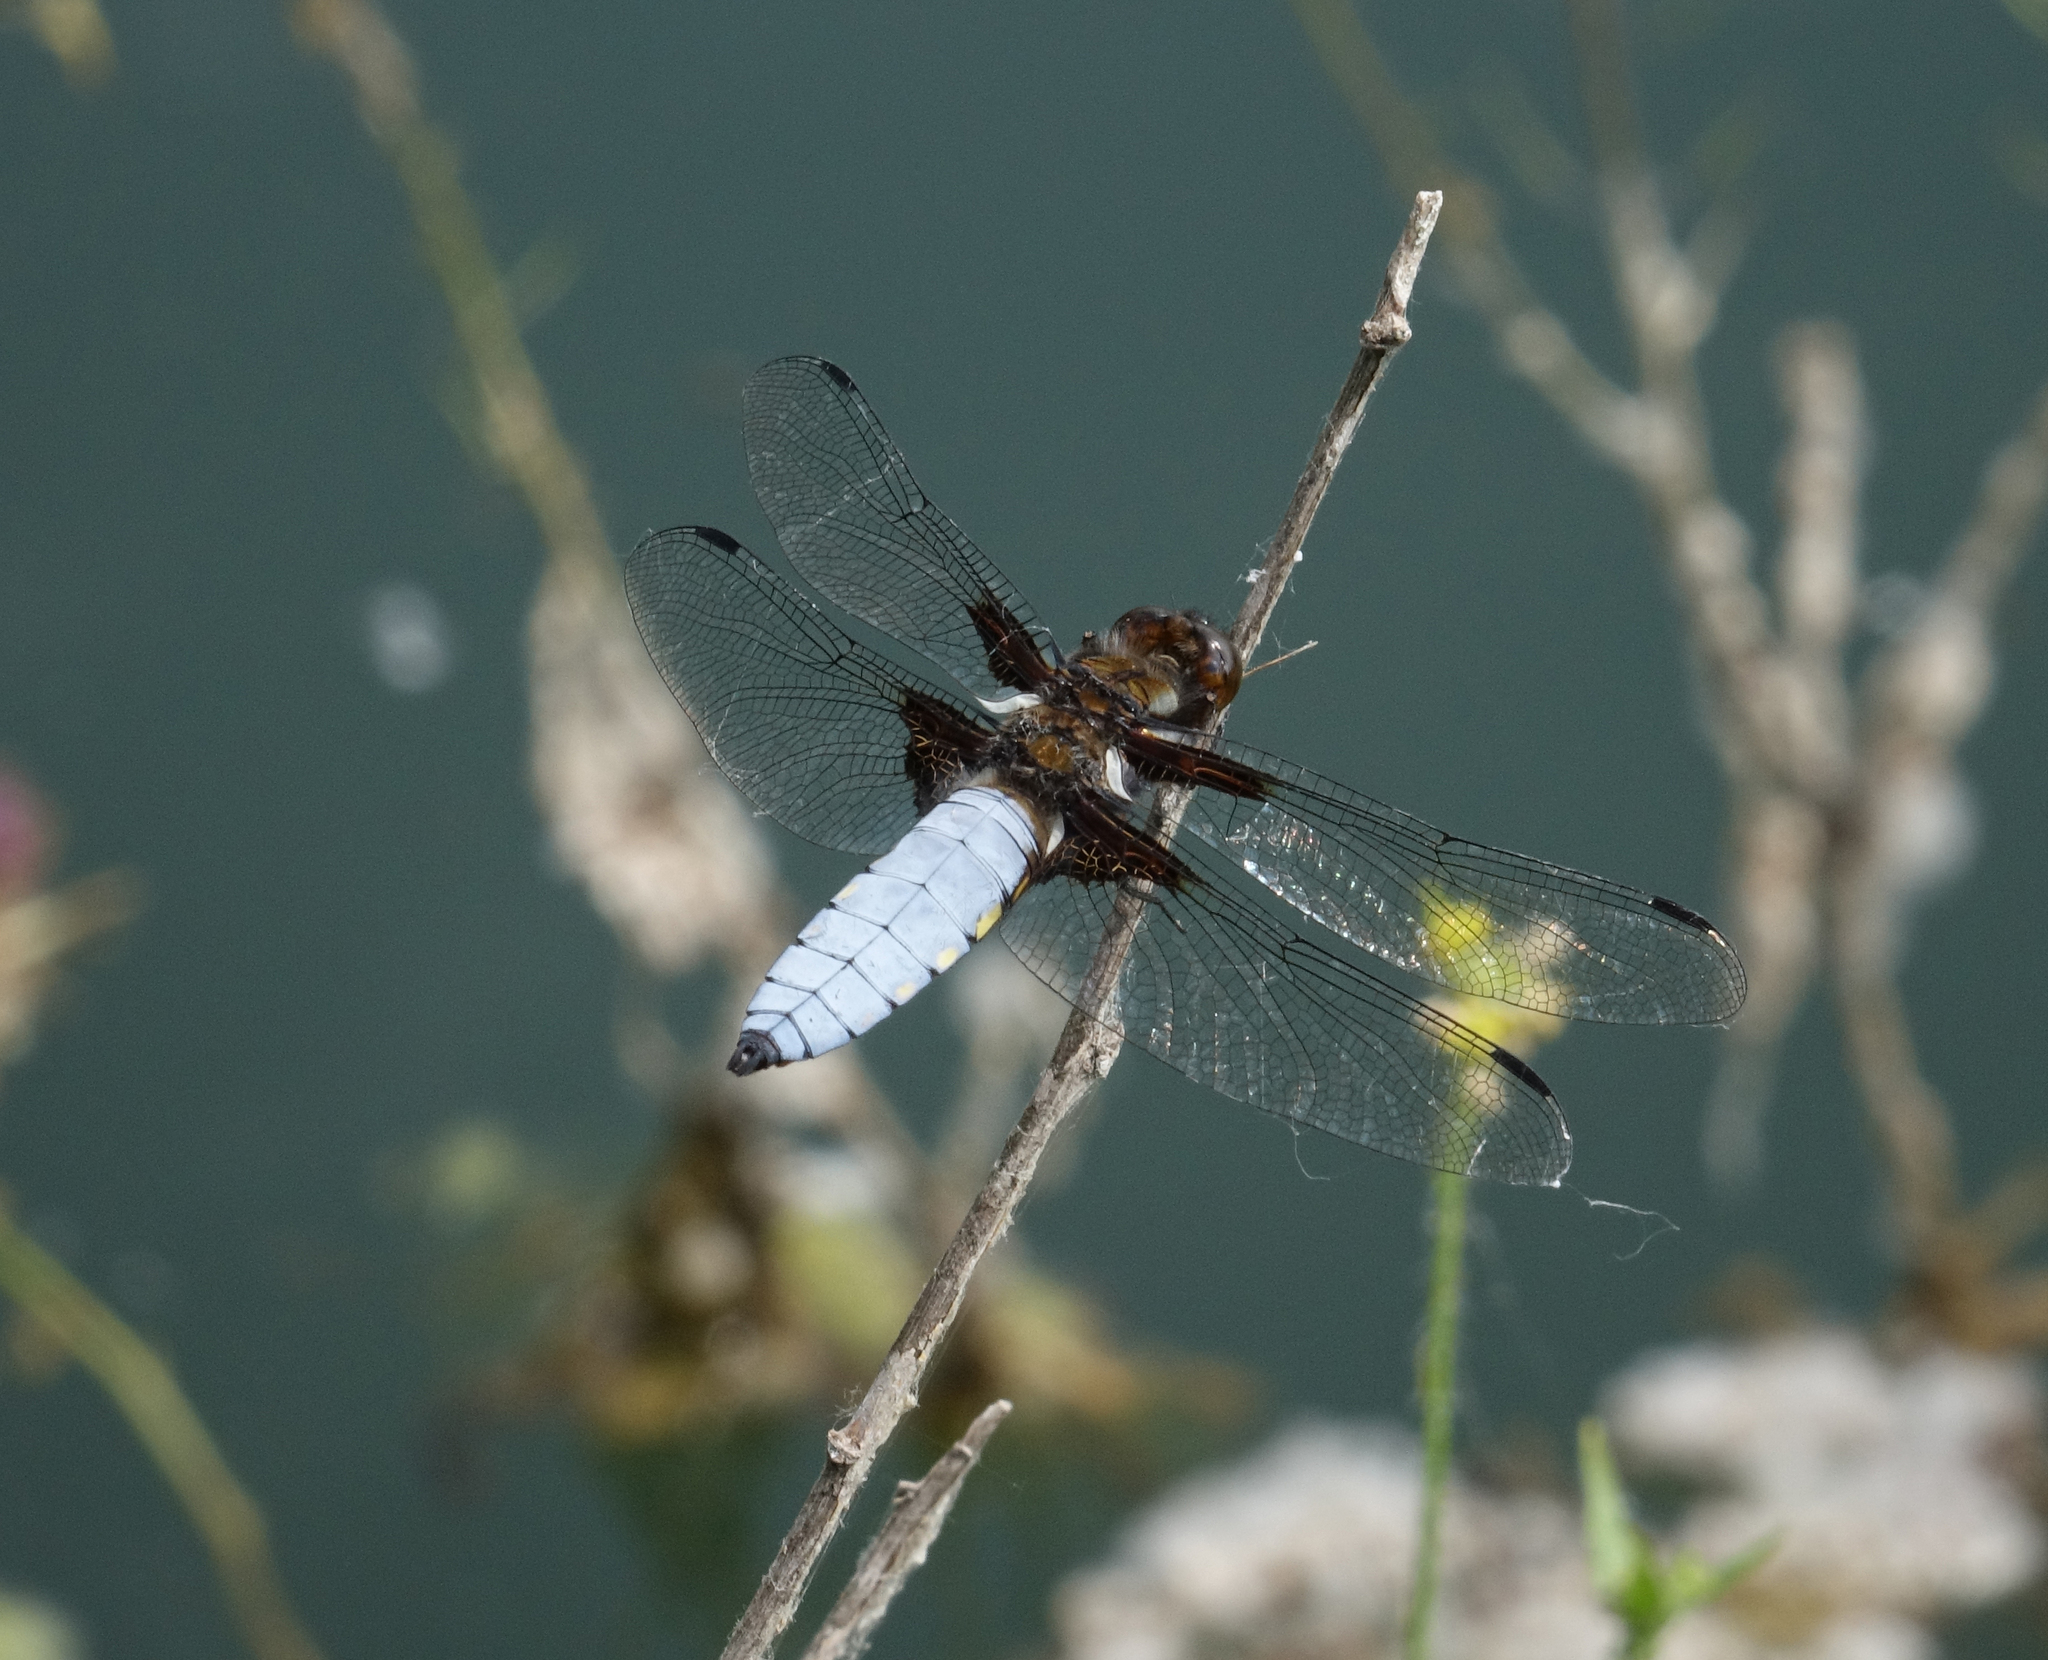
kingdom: Animalia
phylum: Arthropoda
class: Insecta
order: Odonata
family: Libellulidae
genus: Libellula
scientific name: Libellula depressa
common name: Broad-bodied chaser
